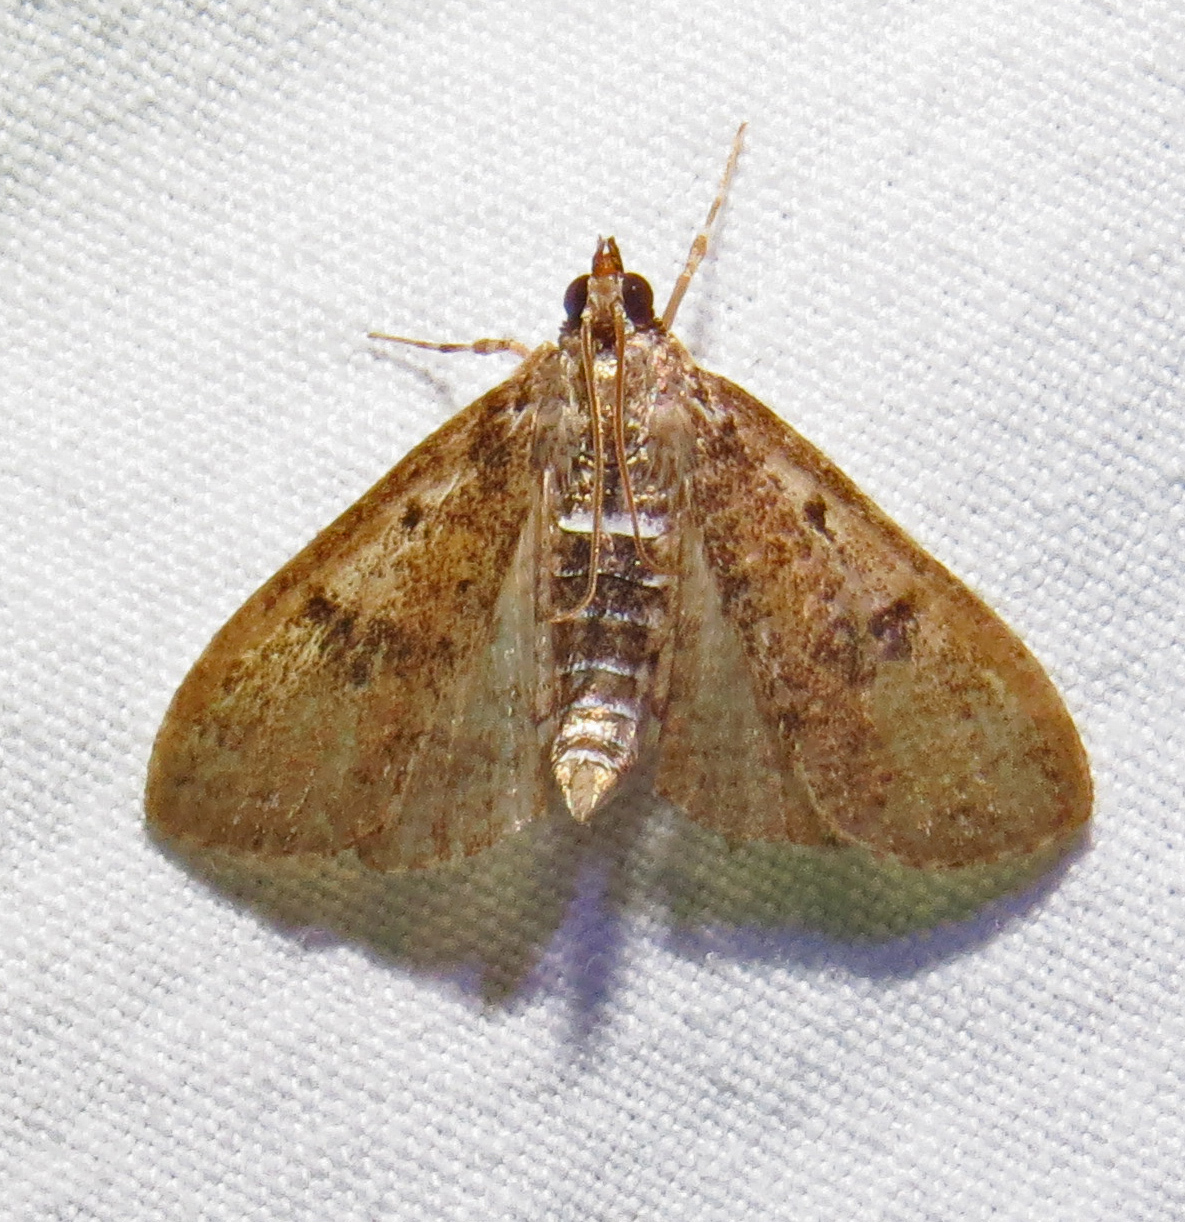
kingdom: Animalia
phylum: Arthropoda
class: Insecta
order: Lepidoptera
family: Crambidae
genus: Palpita
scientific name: Palpita freemanalis
